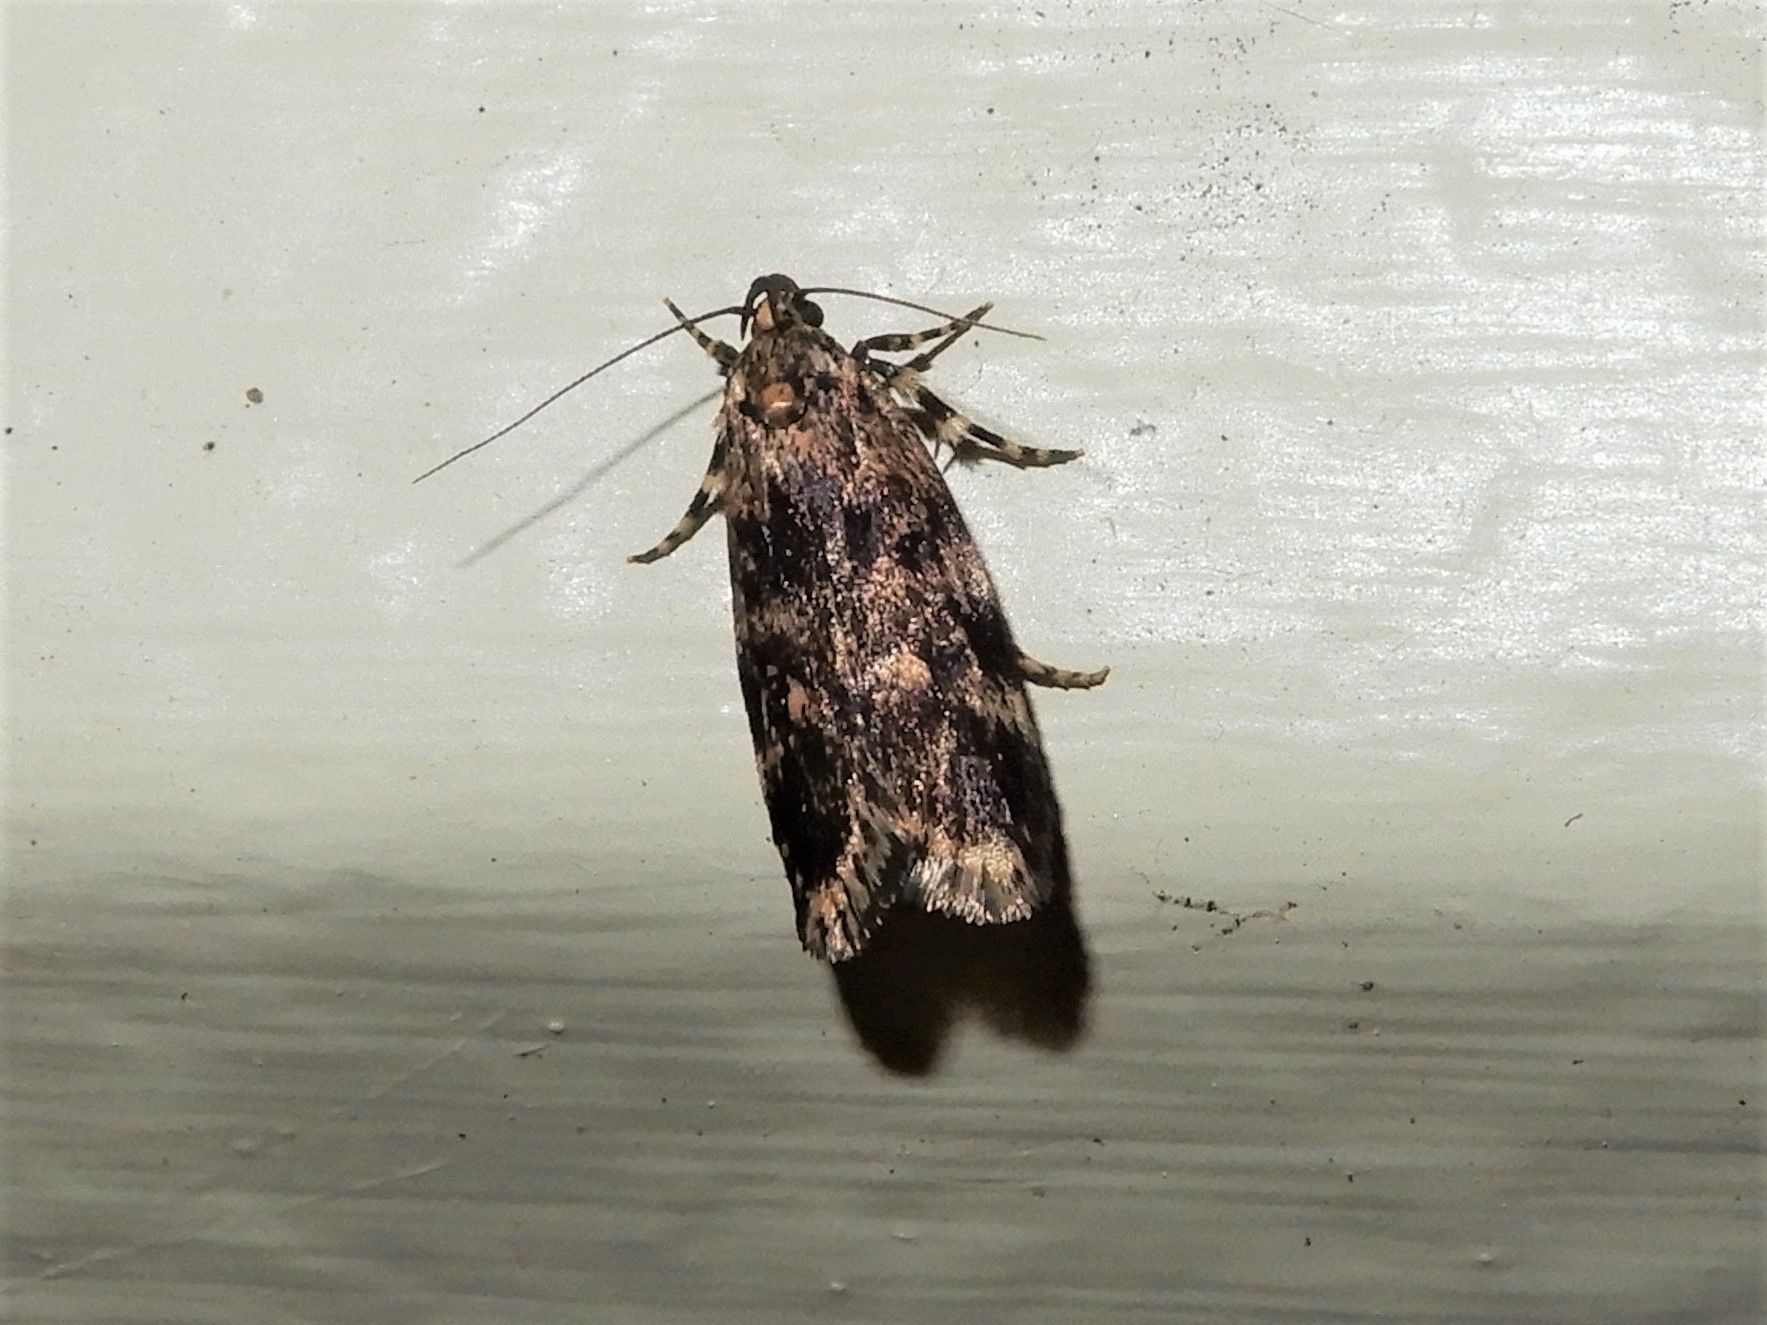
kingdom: Animalia
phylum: Arthropoda
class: Insecta
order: Lepidoptera
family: Oecophoridae
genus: Barea
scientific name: Barea codrella
